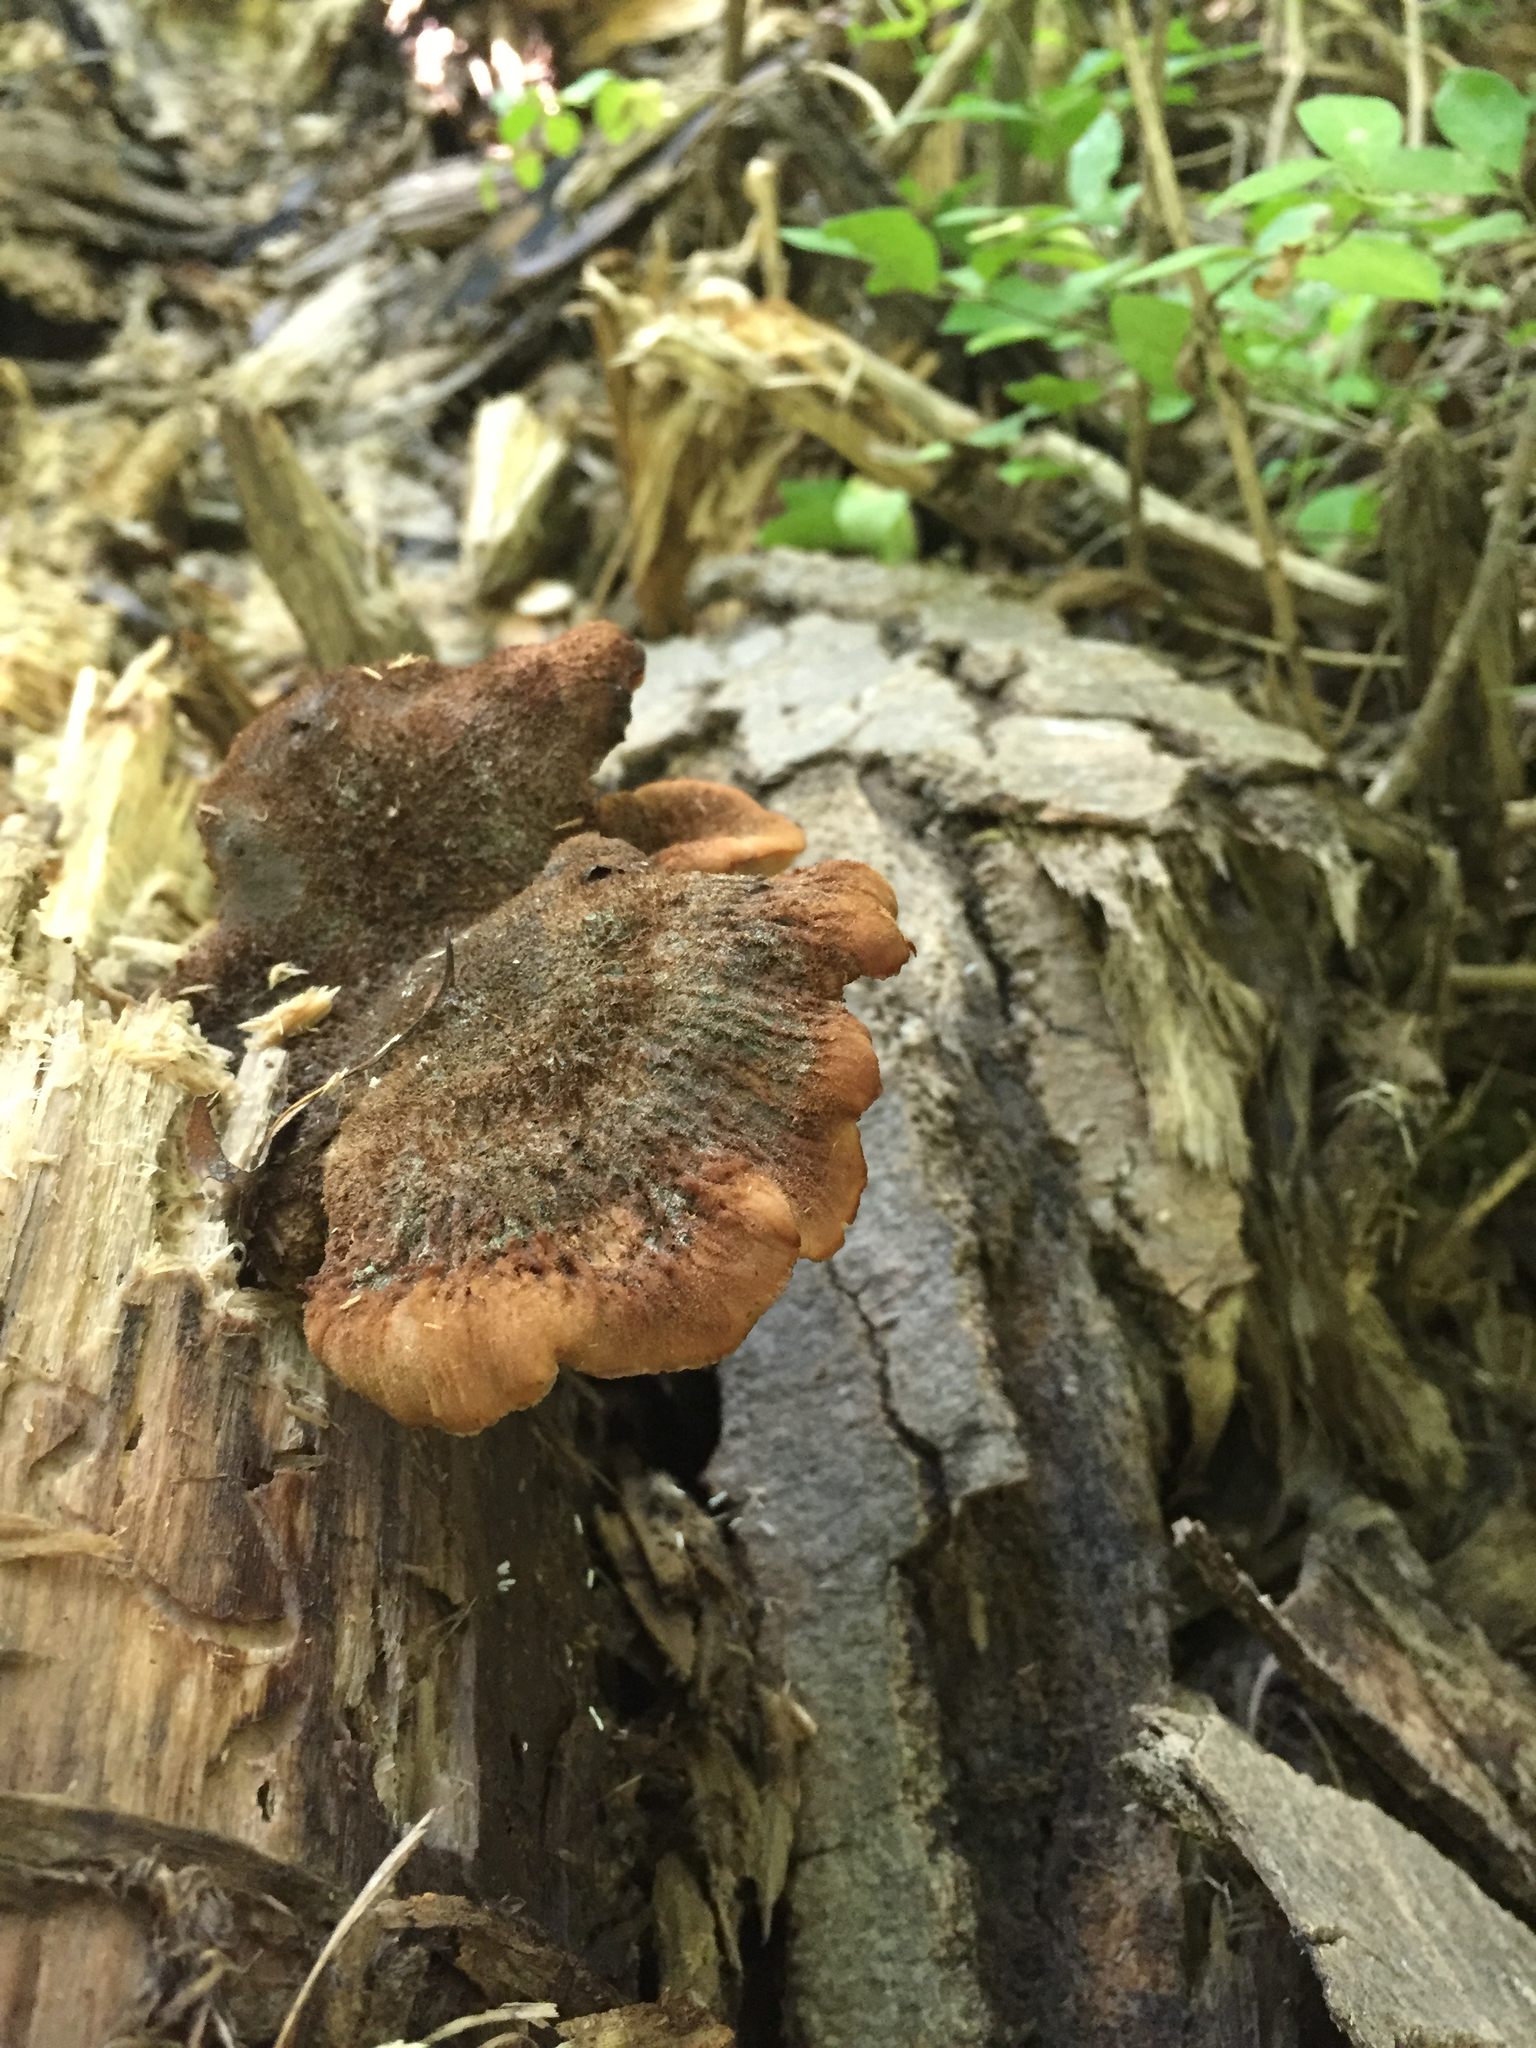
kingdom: Fungi
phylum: Basidiomycota
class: Agaricomycetes
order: Russulales
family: Auriscalpiaceae
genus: Lentinellus
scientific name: Lentinellus ursinus
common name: Bear lentinus
